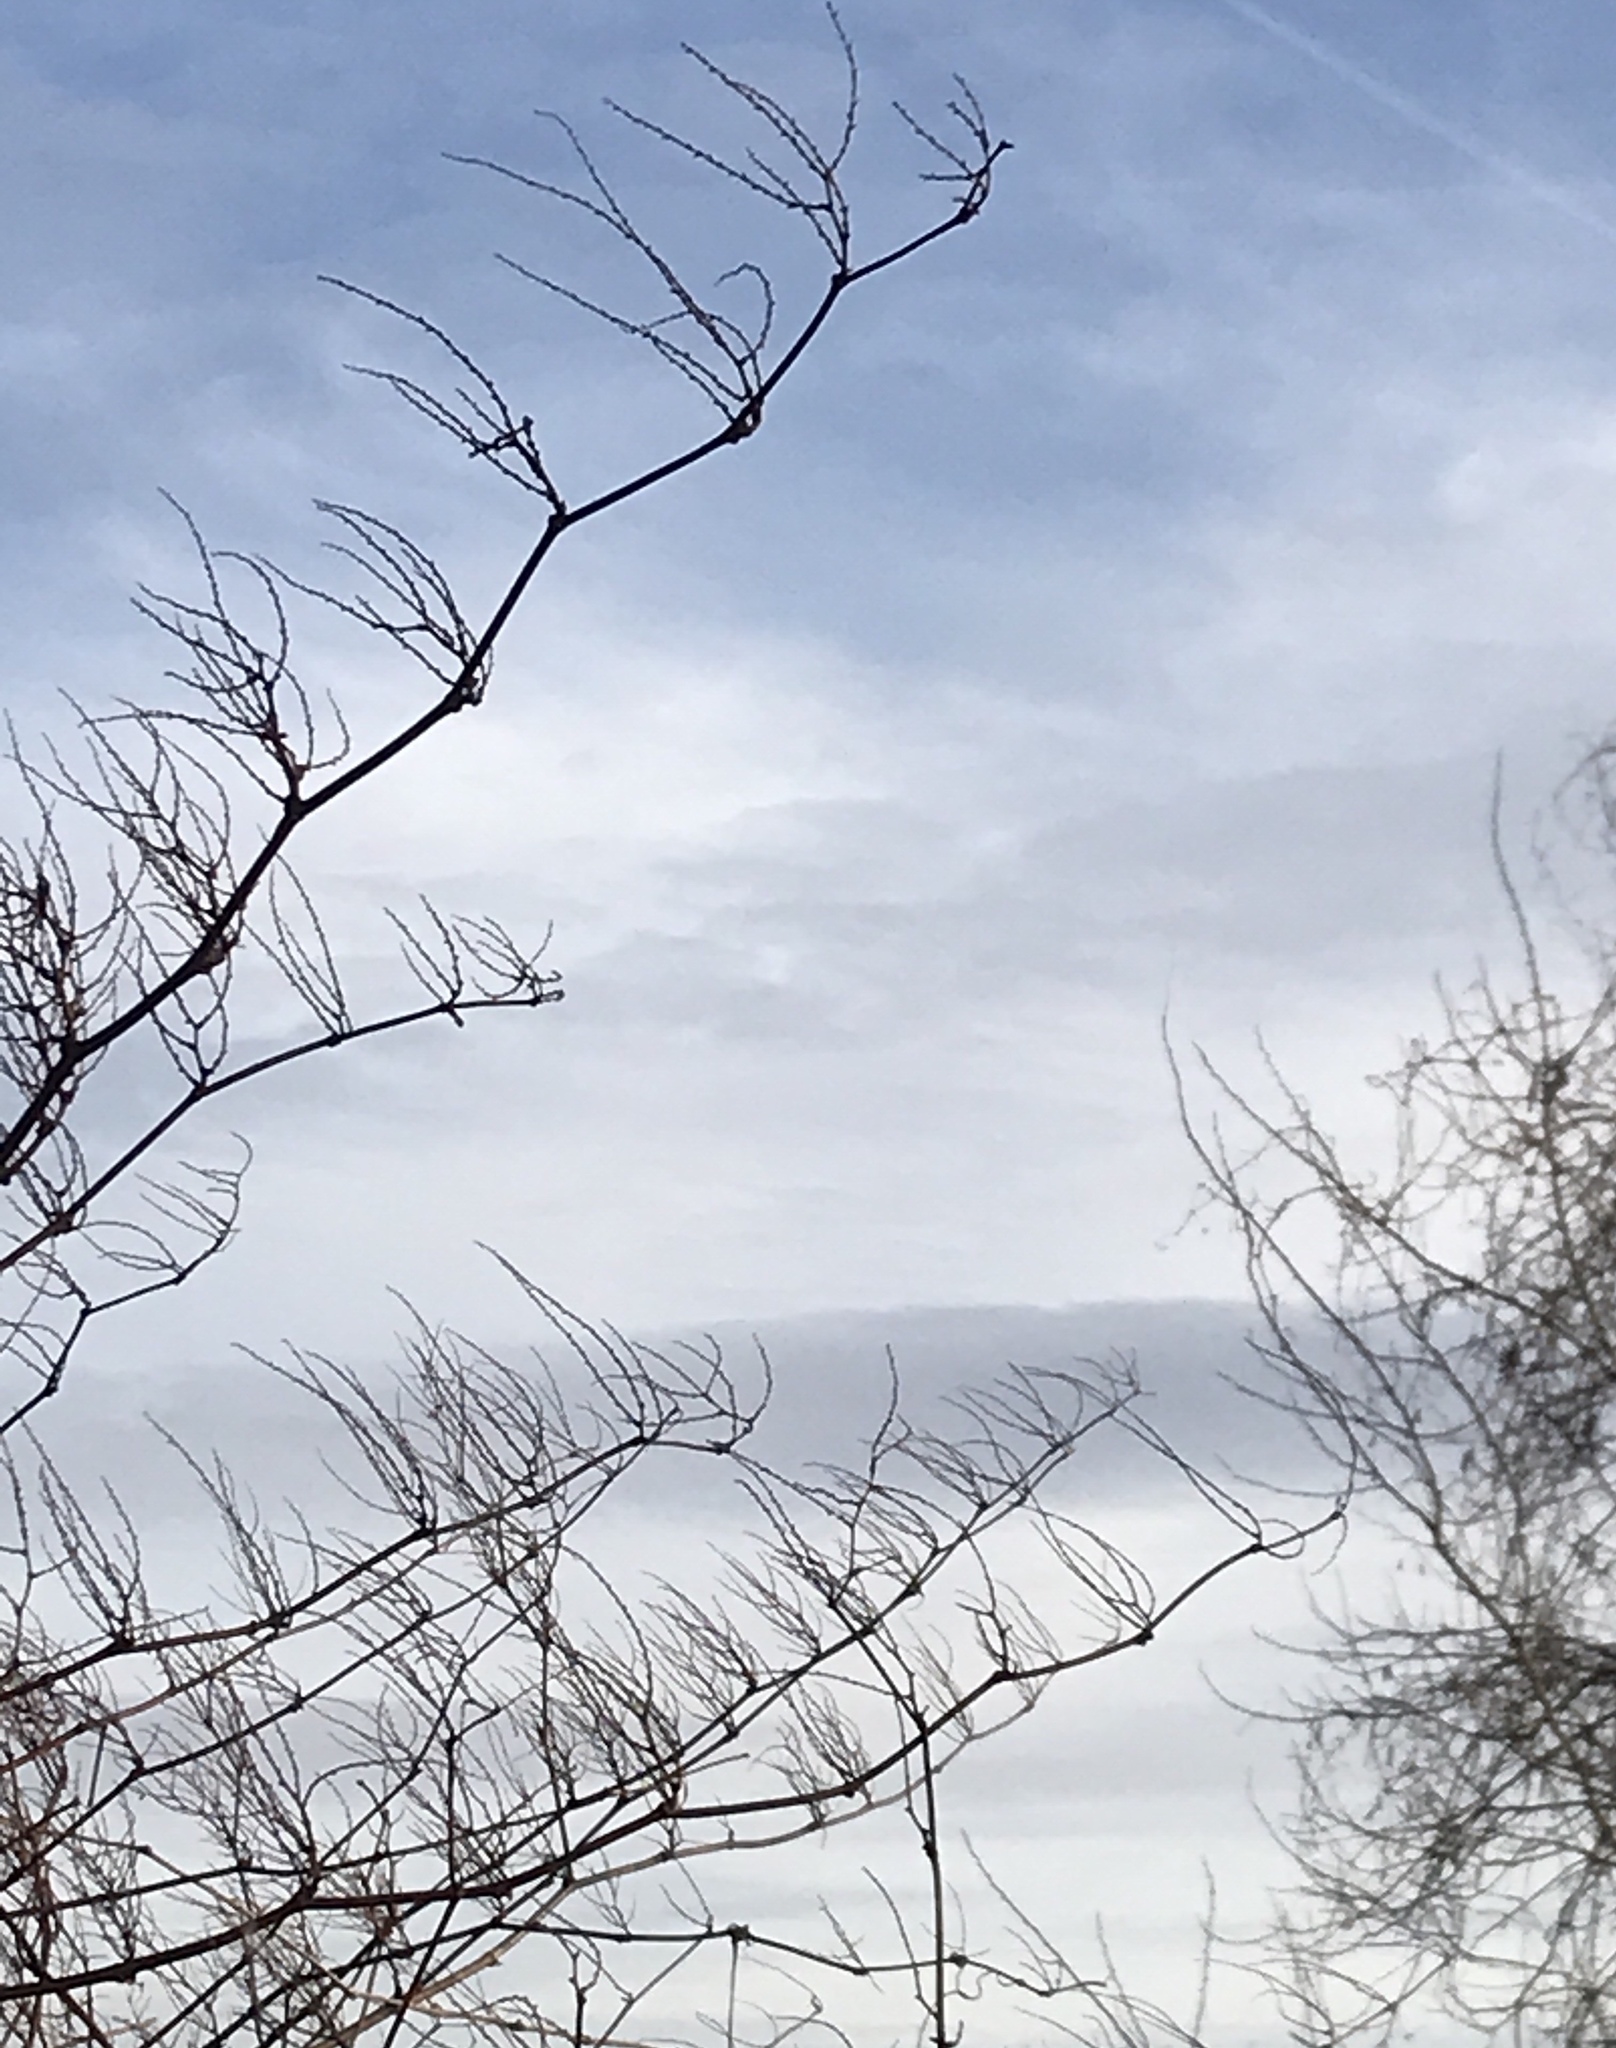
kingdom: Plantae
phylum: Tracheophyta
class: Magnoliopsida
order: Caryophyllales
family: Polygonaceae
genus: Reynoutria
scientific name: Reynoutria japonica
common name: Japanese knotweed
